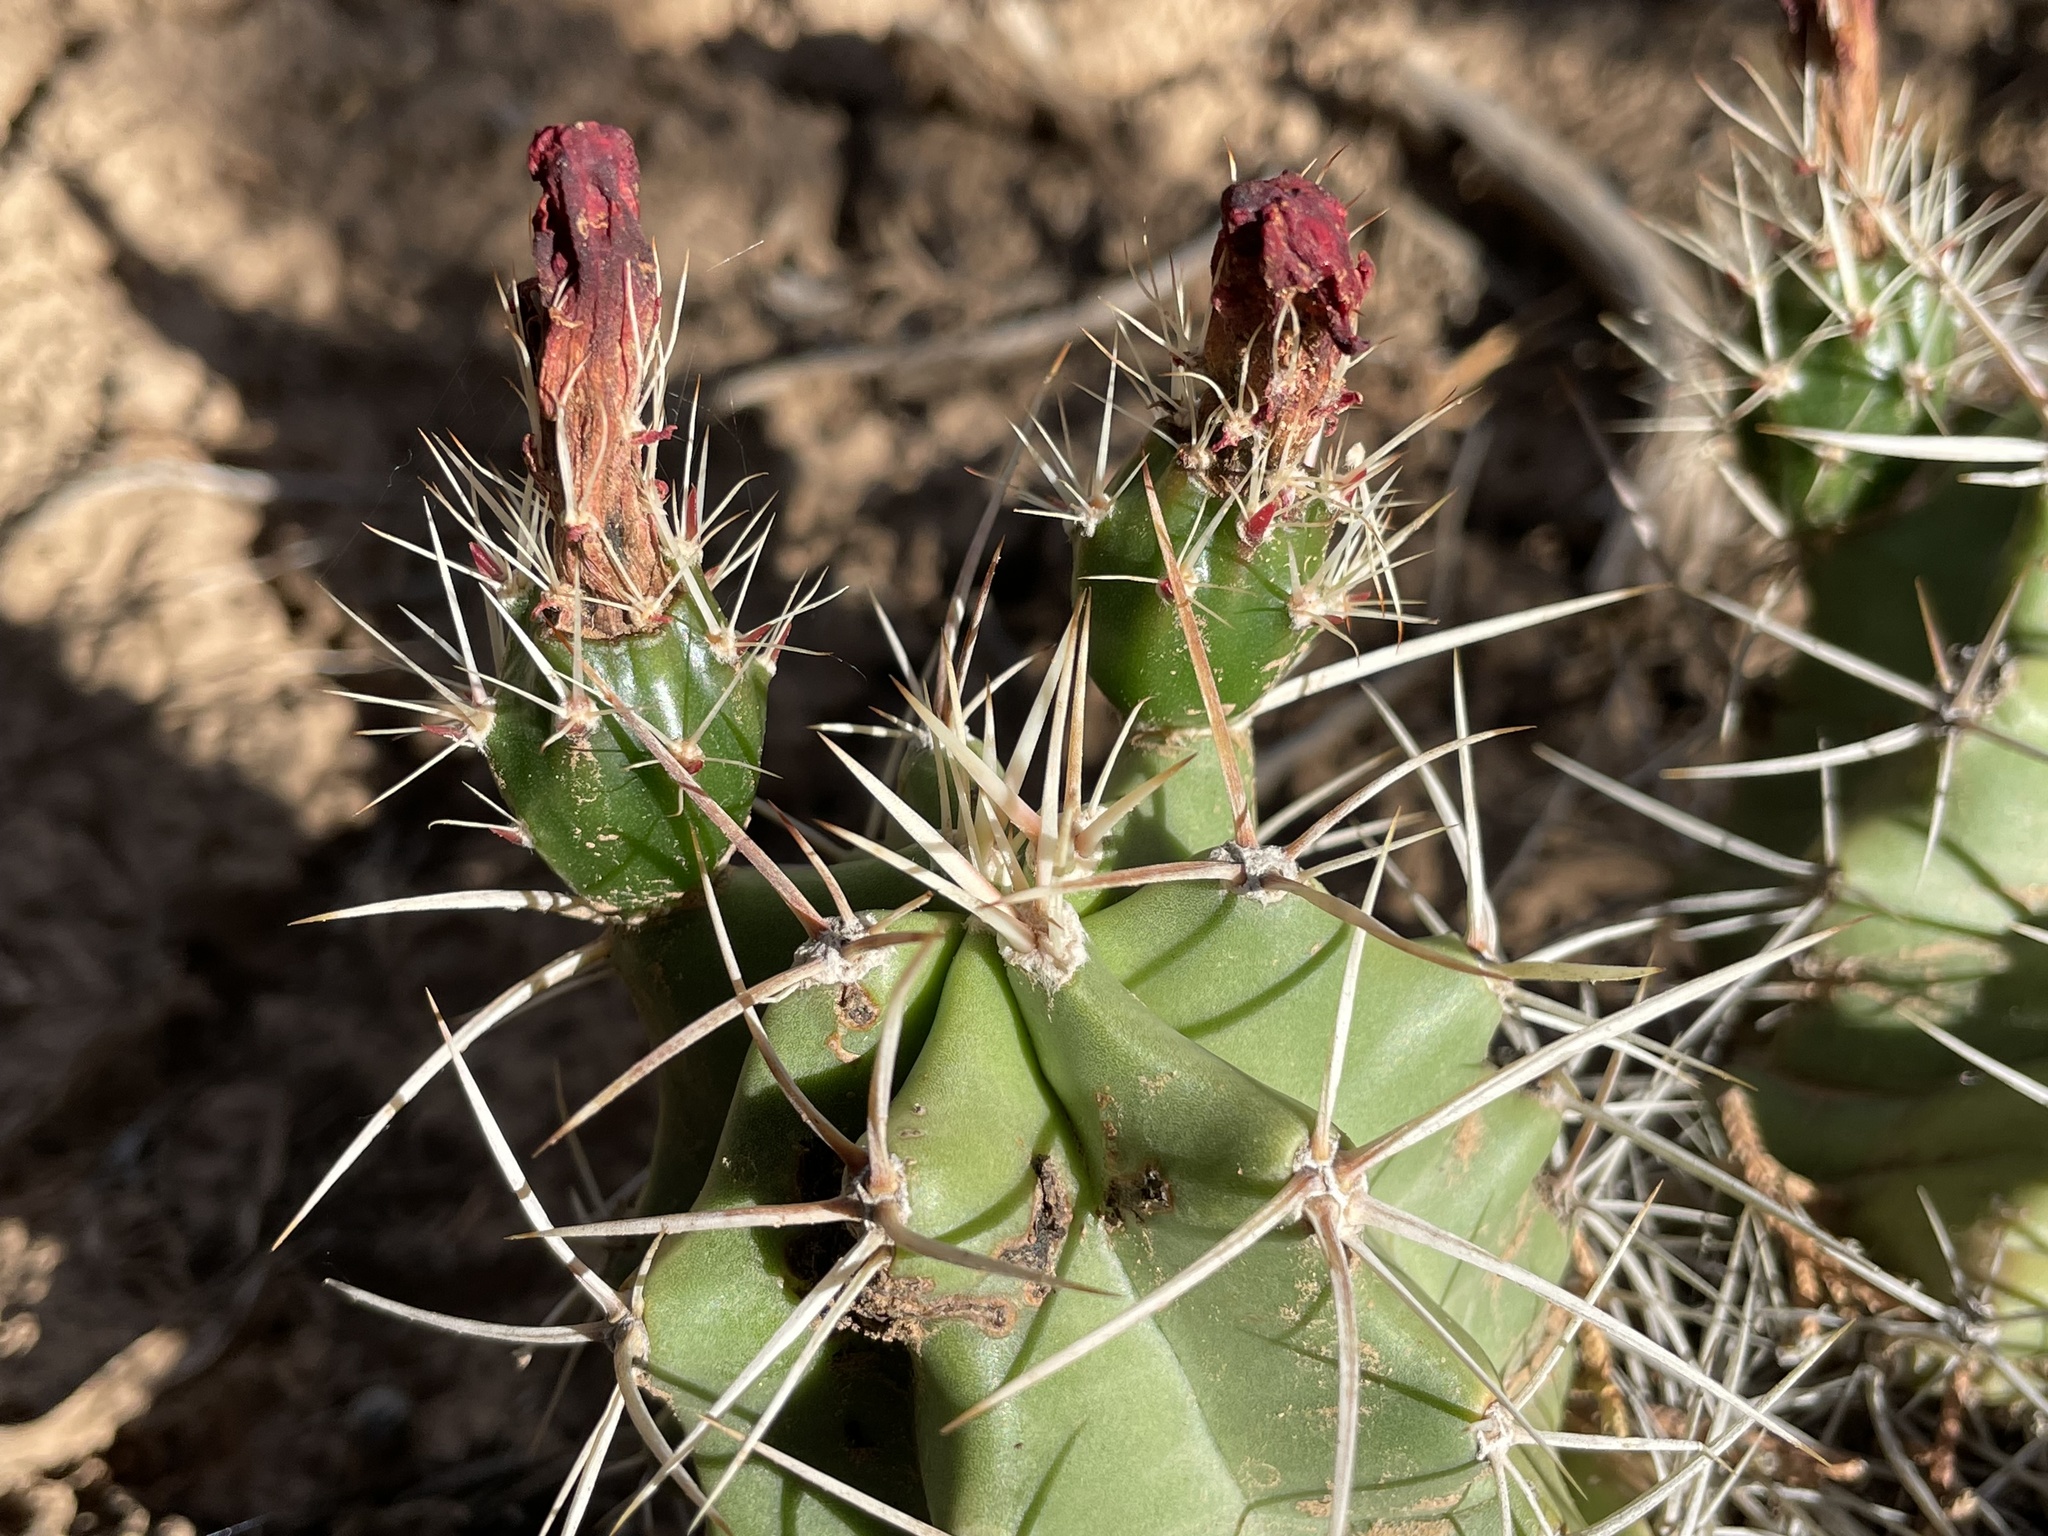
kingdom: Plantae
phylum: Tracheophyta
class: Magnoliopsida
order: Caryophyllales
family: Cactaceae
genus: Echinocereus
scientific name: Echinocereus triglochidiatus
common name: Claretcup hedgehog
